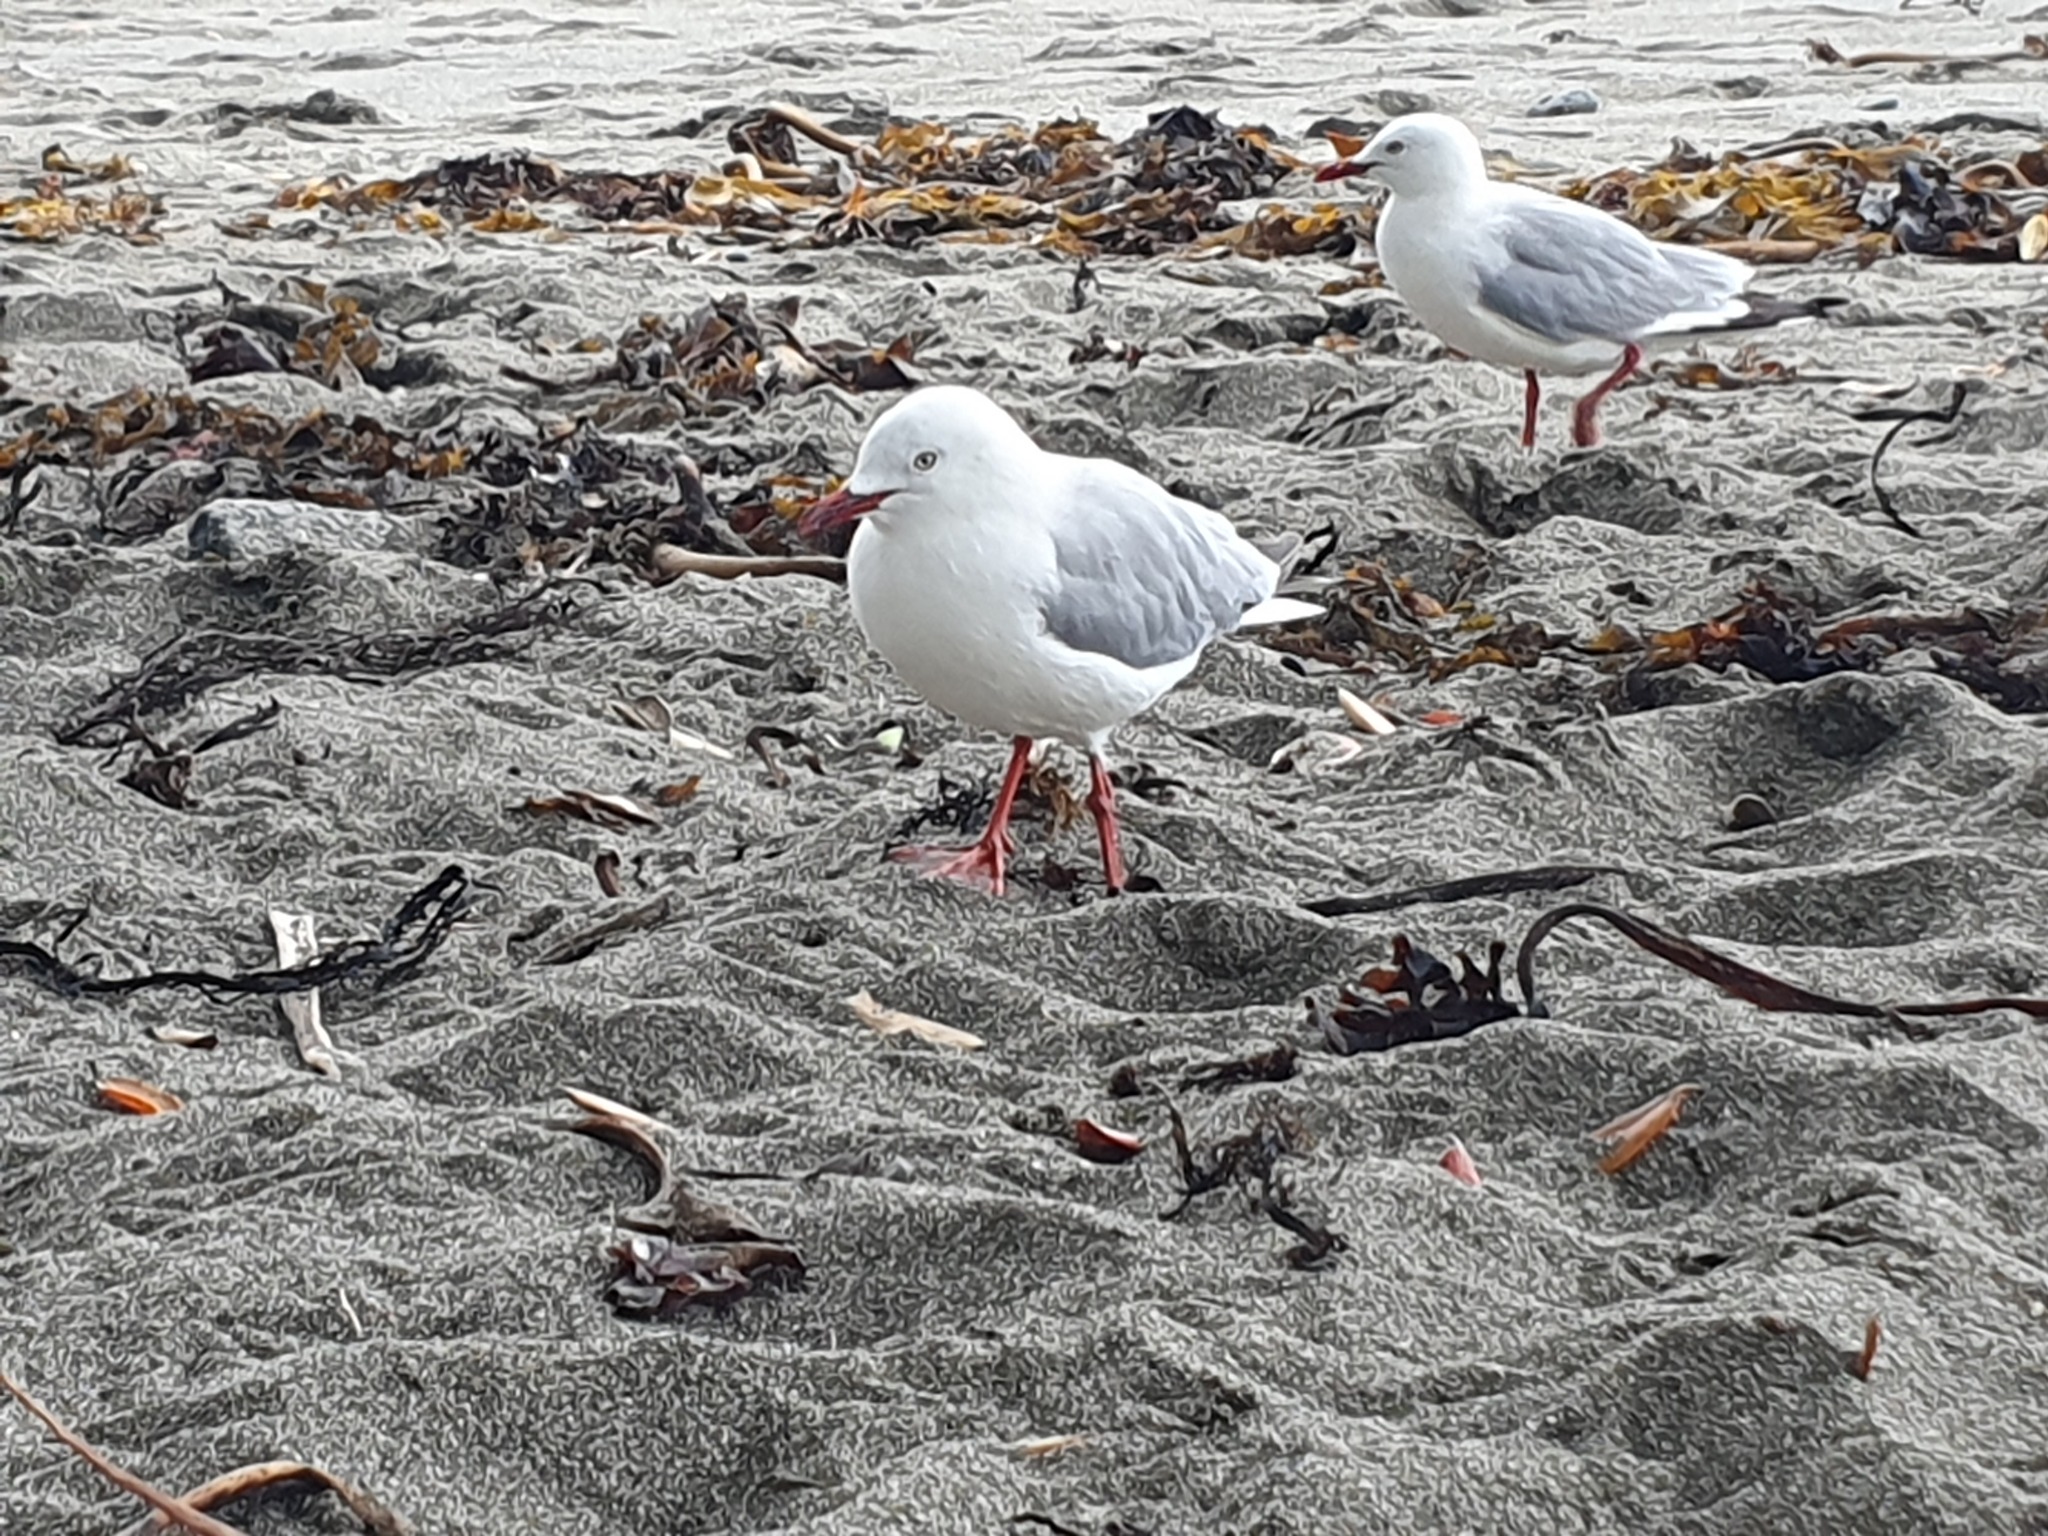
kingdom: Animalia
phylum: Chordata
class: Aves
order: Charadriiformes
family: Laridae
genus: Chroicocephalus
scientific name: Chroicocephalus novaehollandiae
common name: Silver gull
